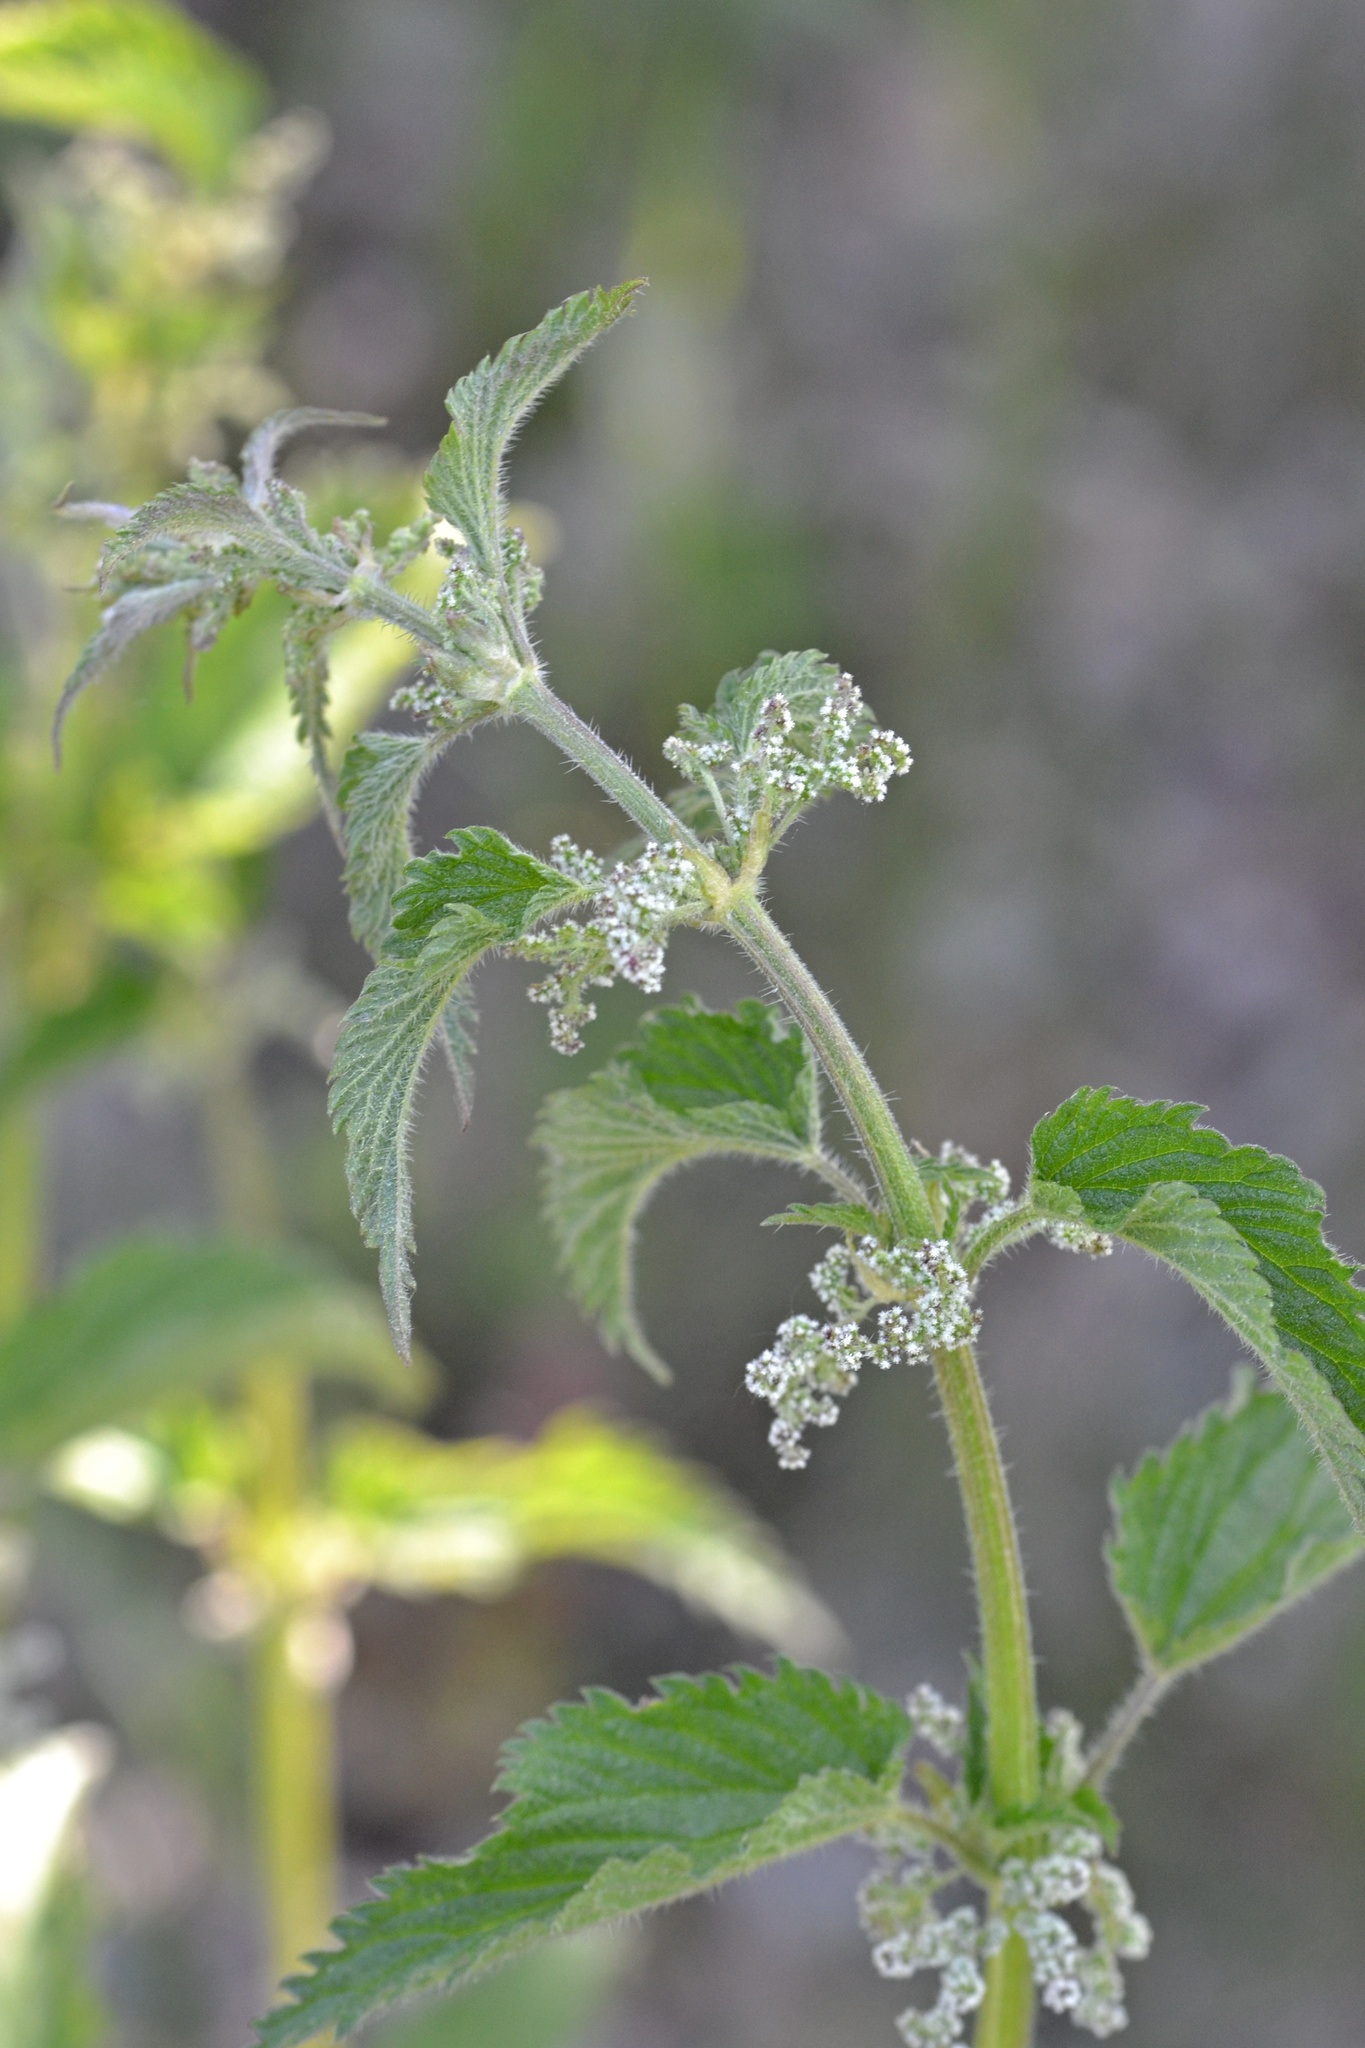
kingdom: Plantae
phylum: Tracheophyta
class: Magnoliopsida
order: Rosales
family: Urticaceae
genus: Urtica
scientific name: Urtica dioica
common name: Common nettle
